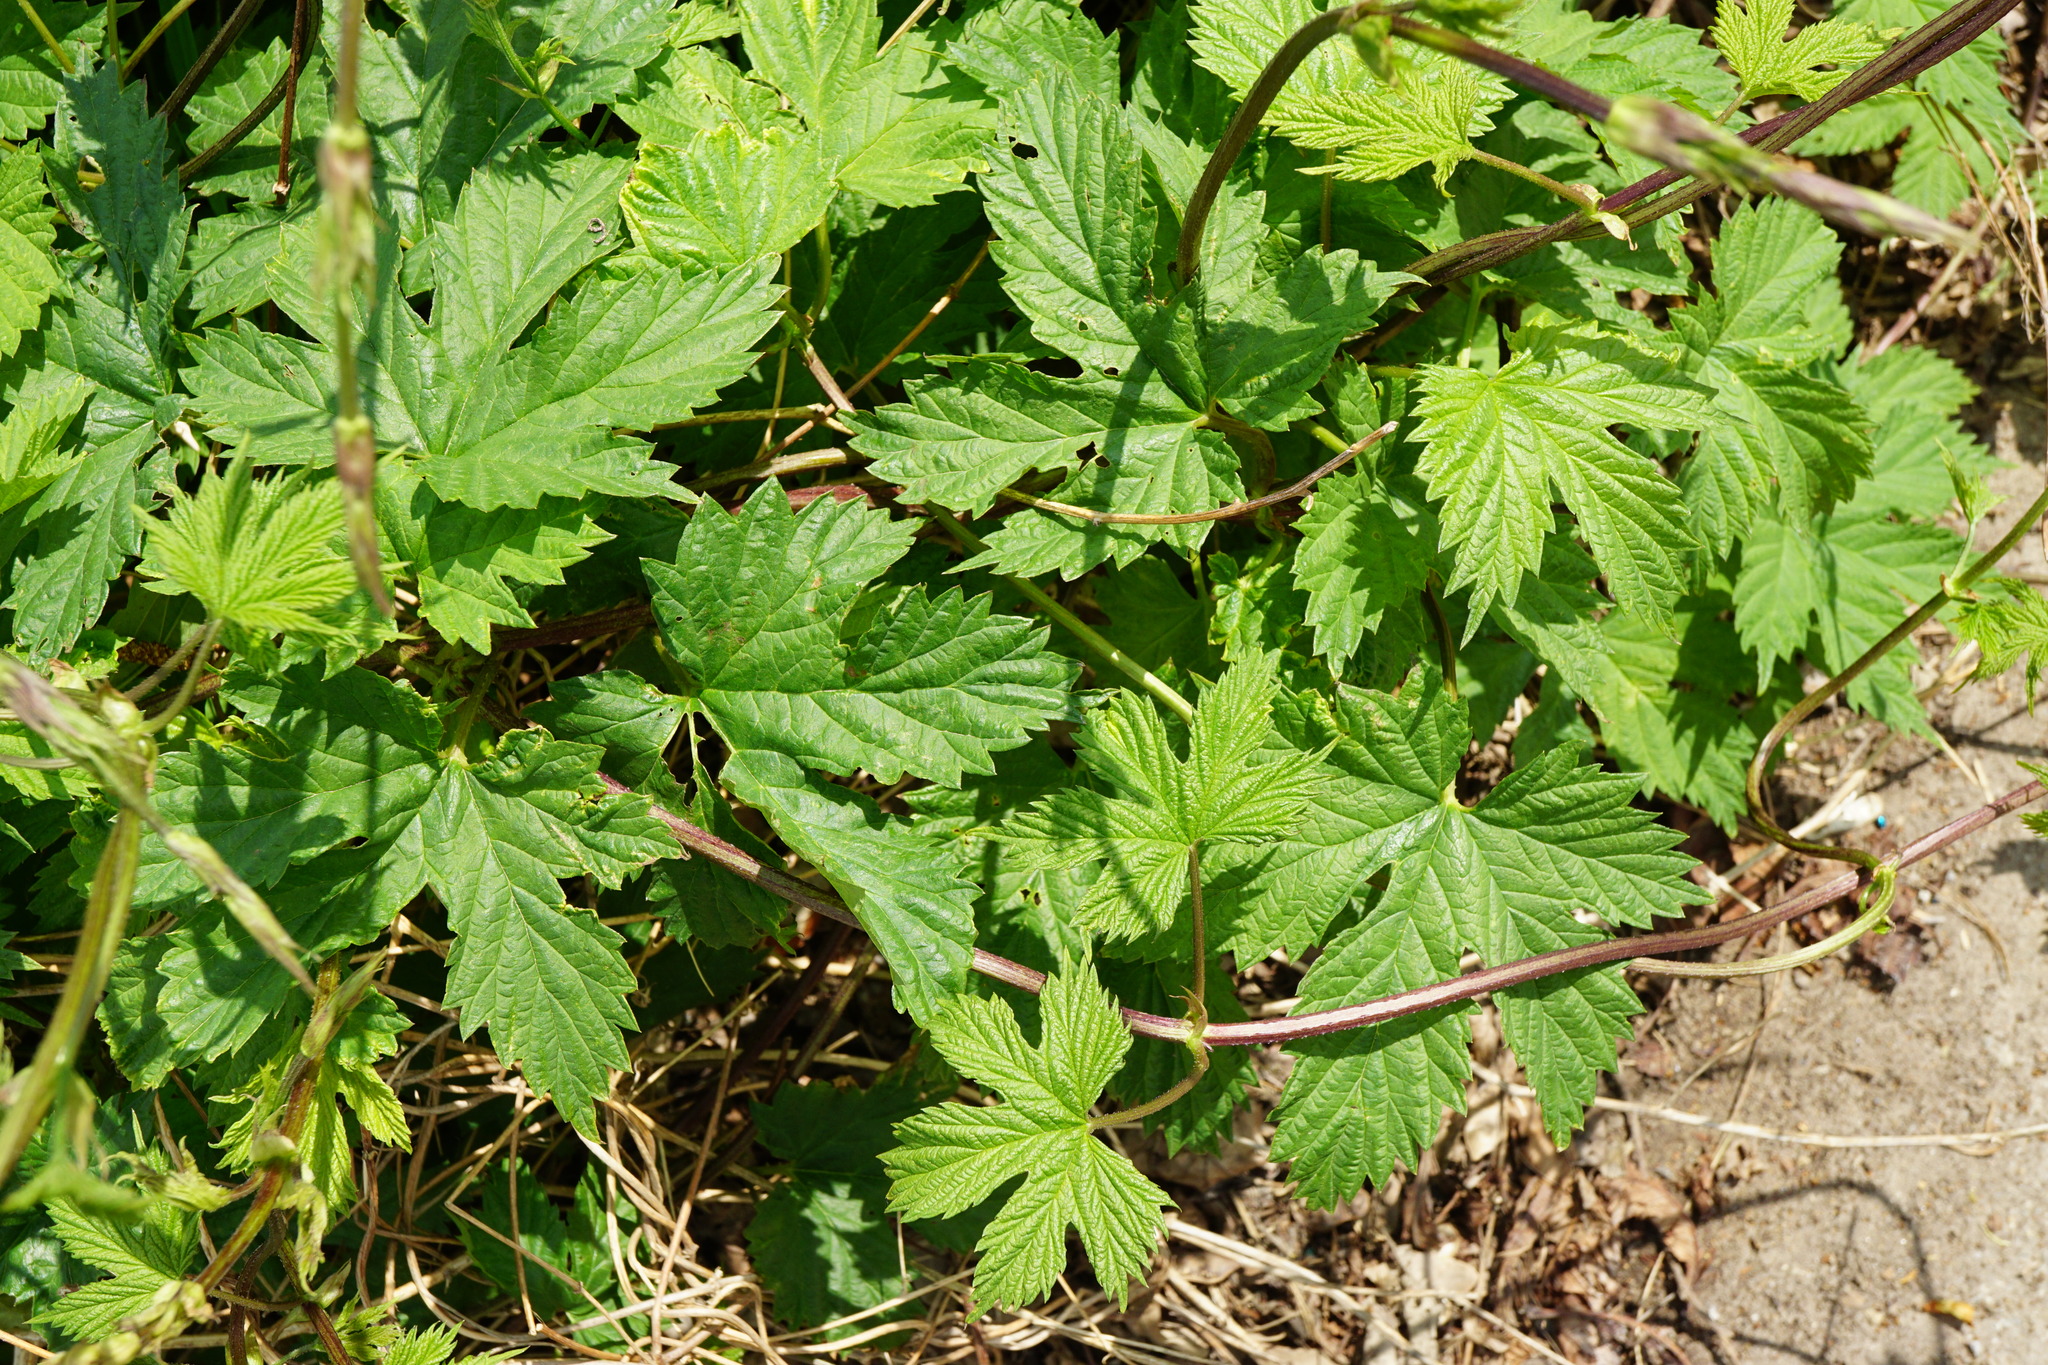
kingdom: Plantae
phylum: Tracheophyta
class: Magnoliopsida
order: Rosales
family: Cannabaceae
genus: Humulus
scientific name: Humulus lupulus
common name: Hop
